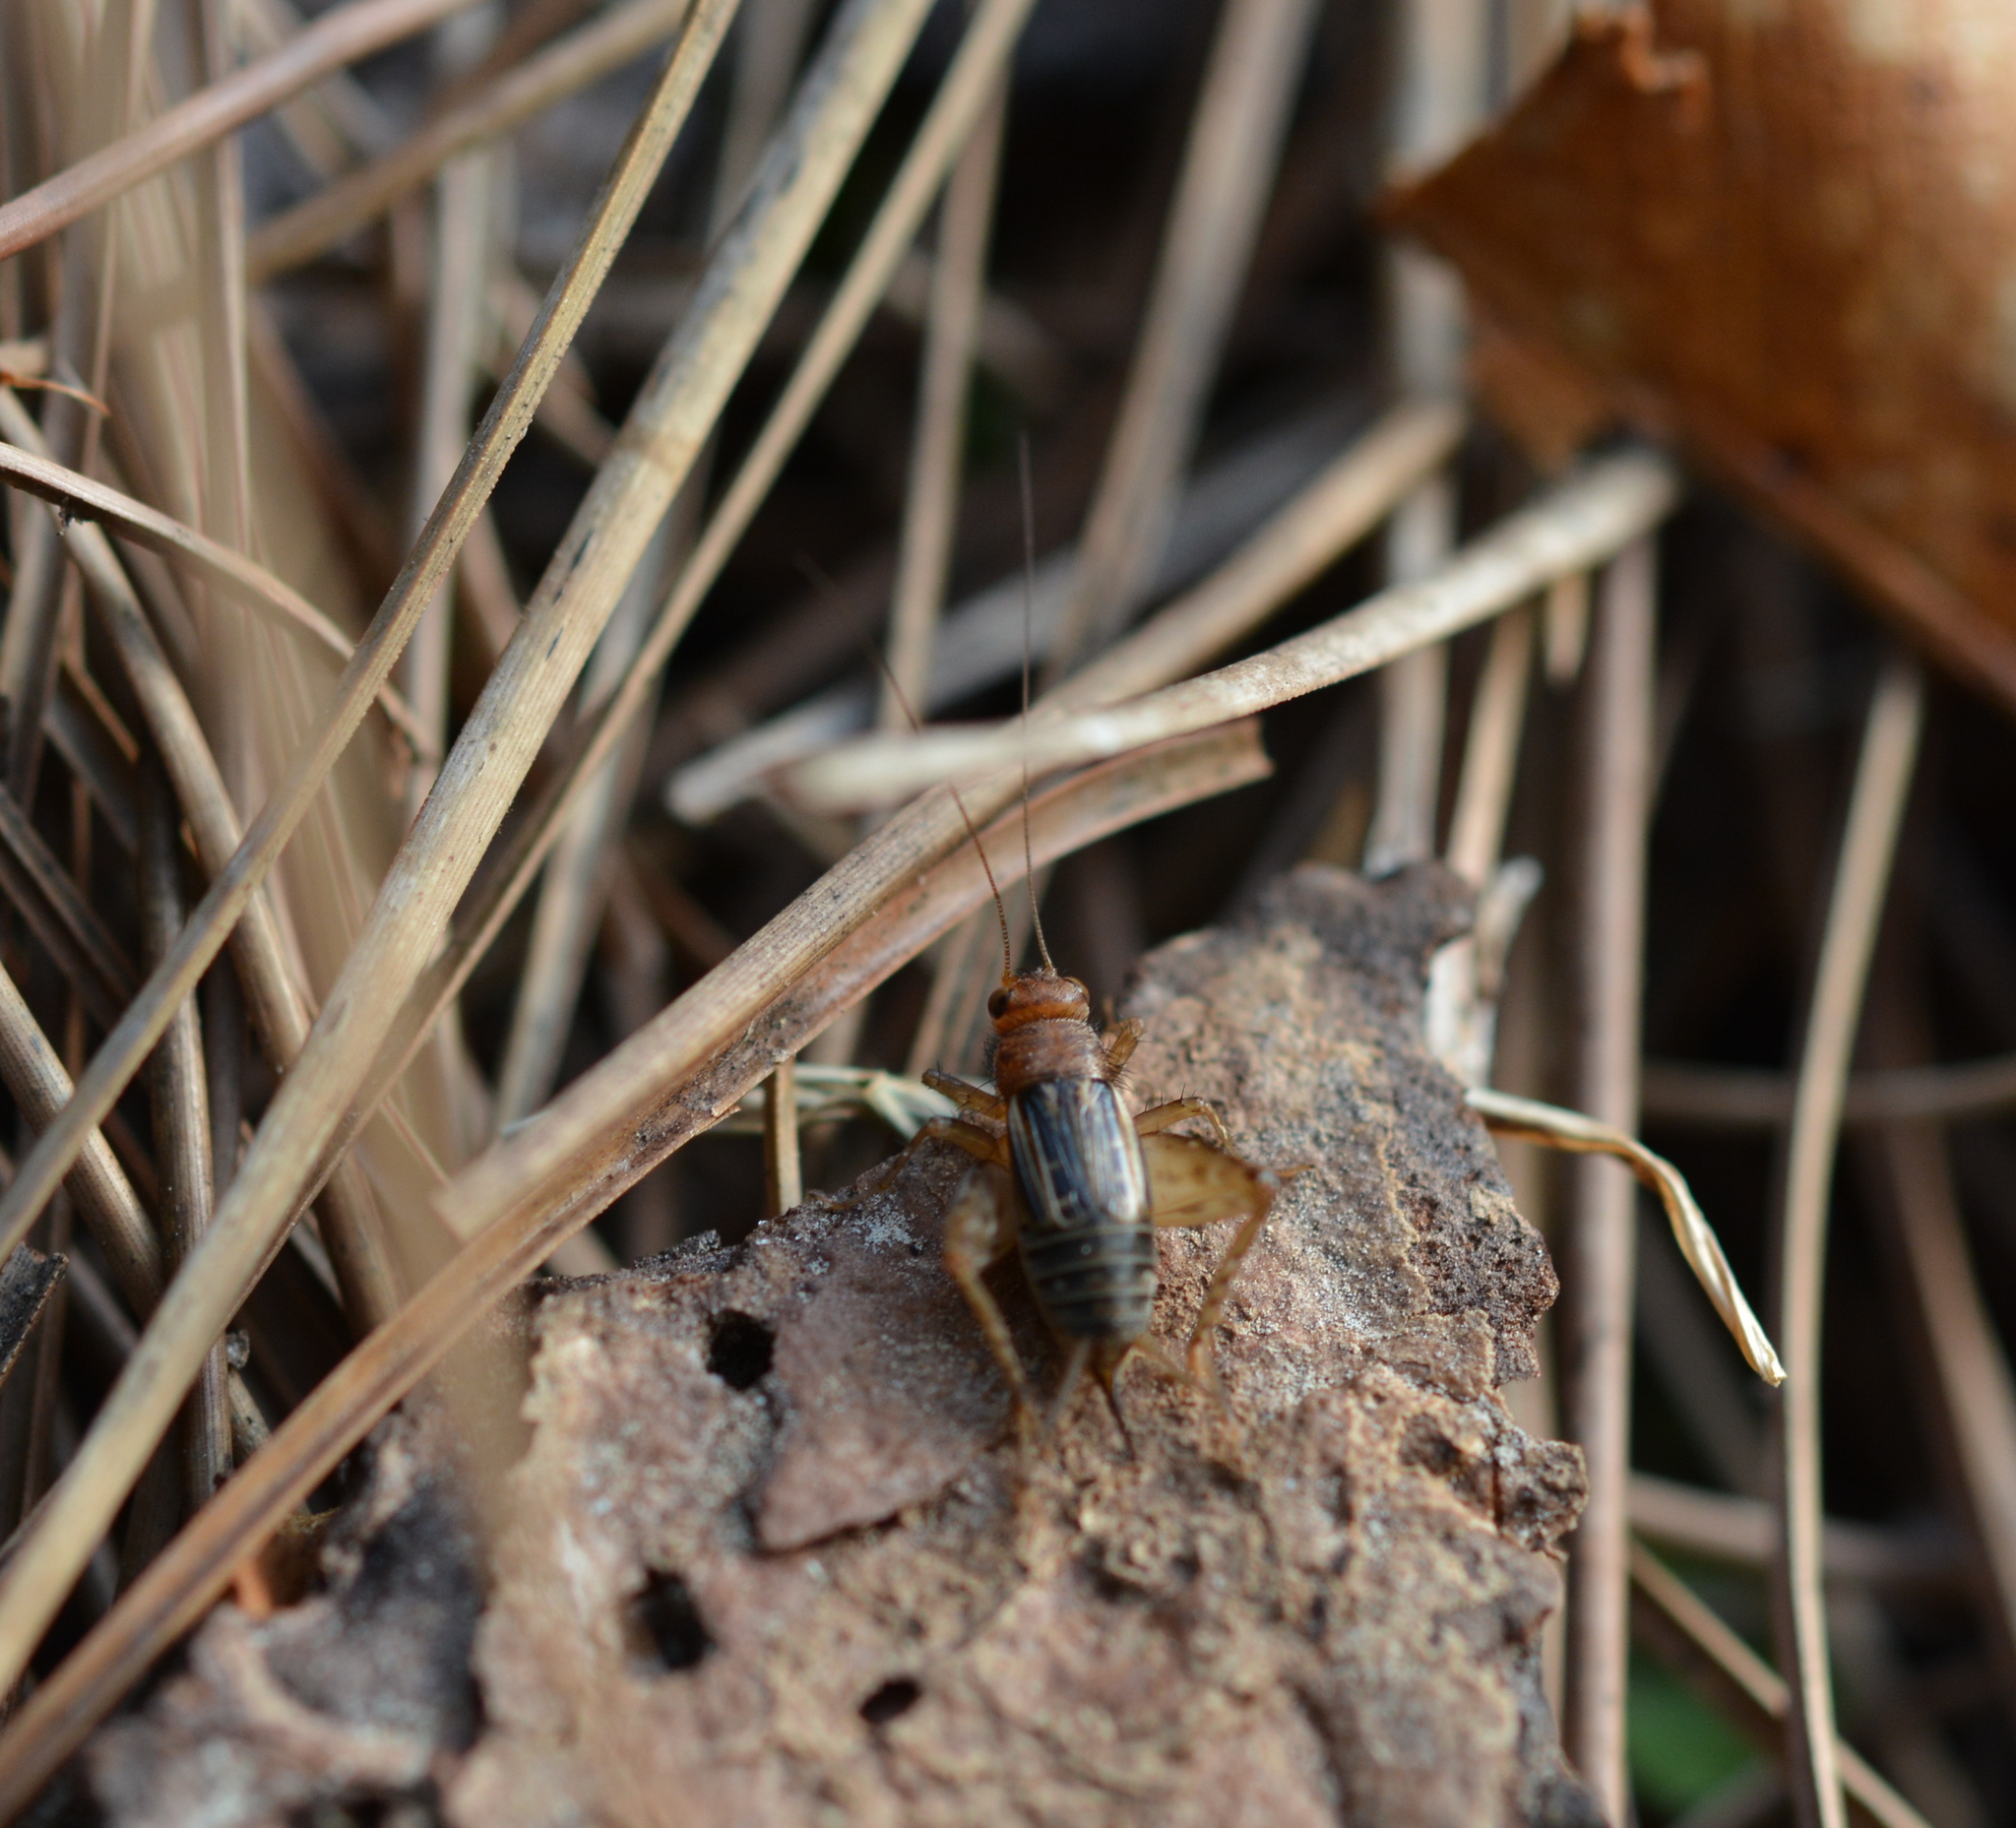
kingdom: Animalia
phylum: Arthropoda
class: Insecta
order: Orthoptera
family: Trigonidiidae
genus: Neonemobius
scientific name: Neonemobius mormonius
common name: Mormon ground cricket
